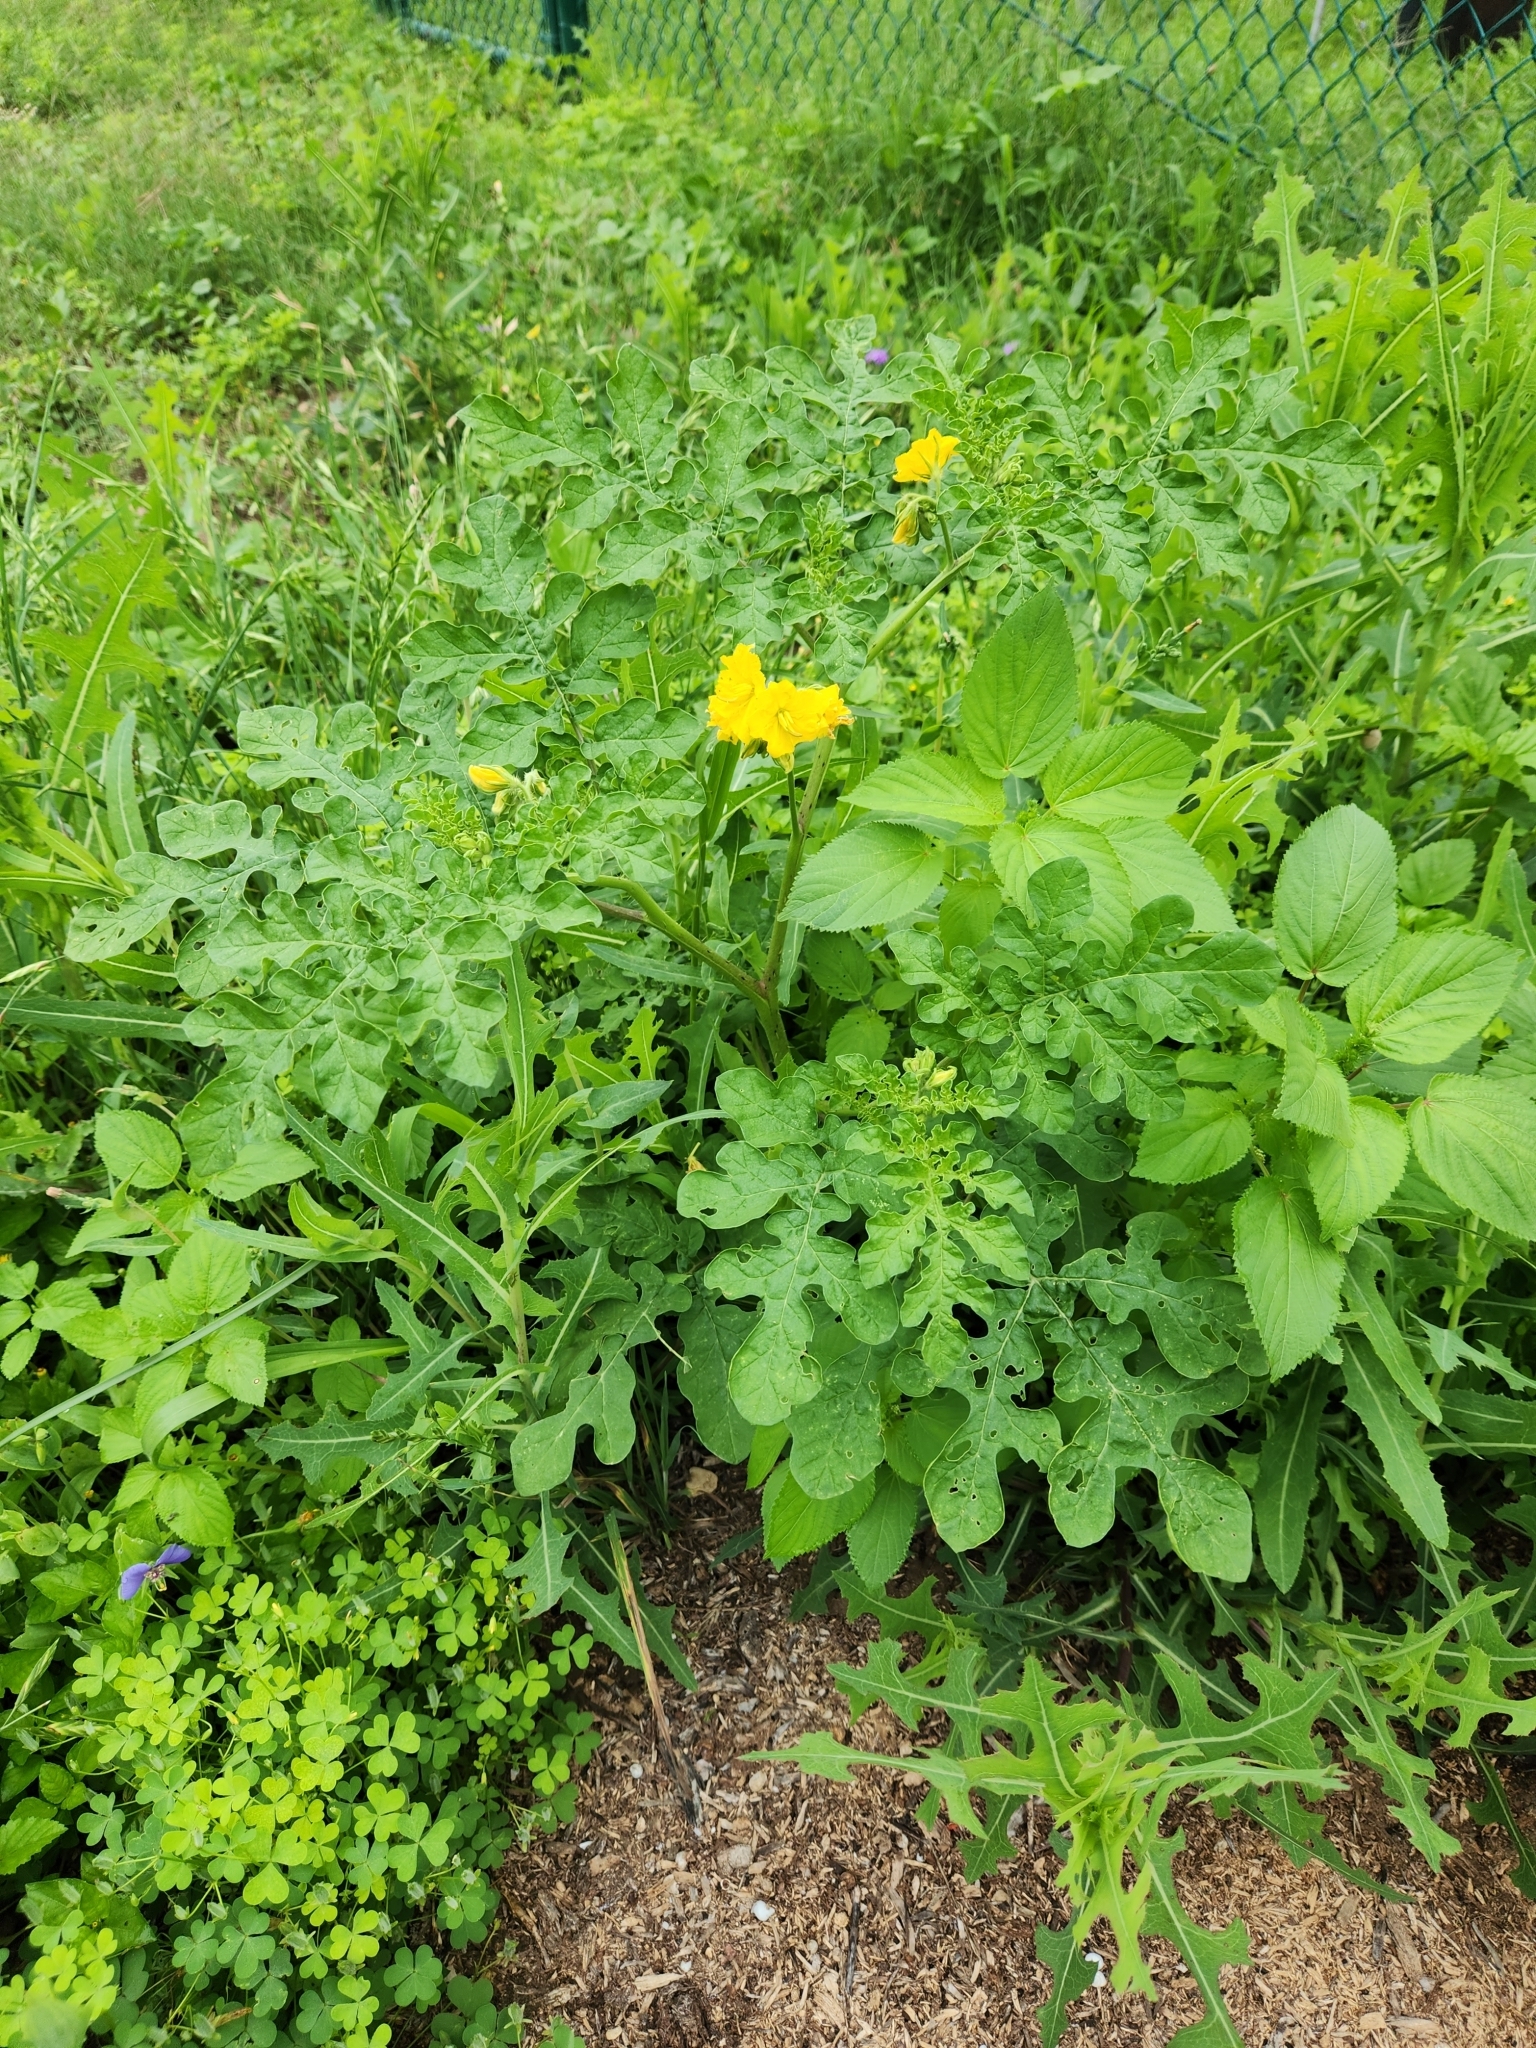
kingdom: Plantae
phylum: Tracheophyta
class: Magnoliopsida
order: Solanales
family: Solanaceae
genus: Solanum
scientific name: Solanum angustifolium
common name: Buffalobur nightshade
